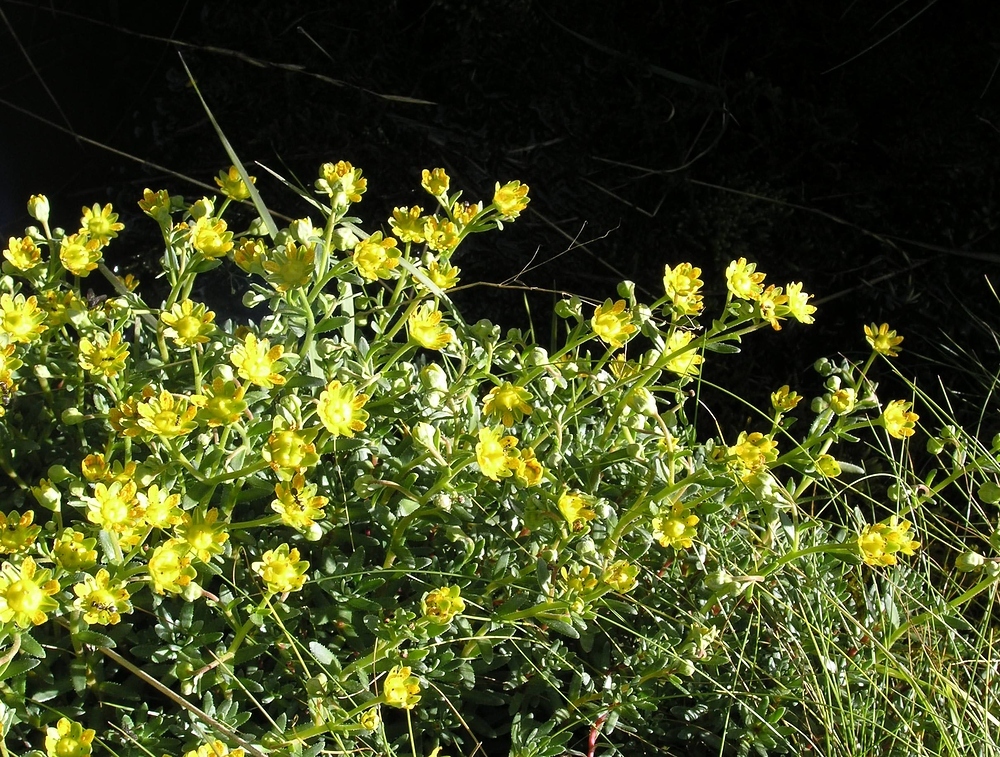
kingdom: Plantae
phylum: Tracheophyta
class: Magnoliopsida
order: Saxifragales
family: Saxifragaceae
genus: Saxifraga
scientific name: Saxifraga aizoides
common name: Yellow mountain saxifrage
